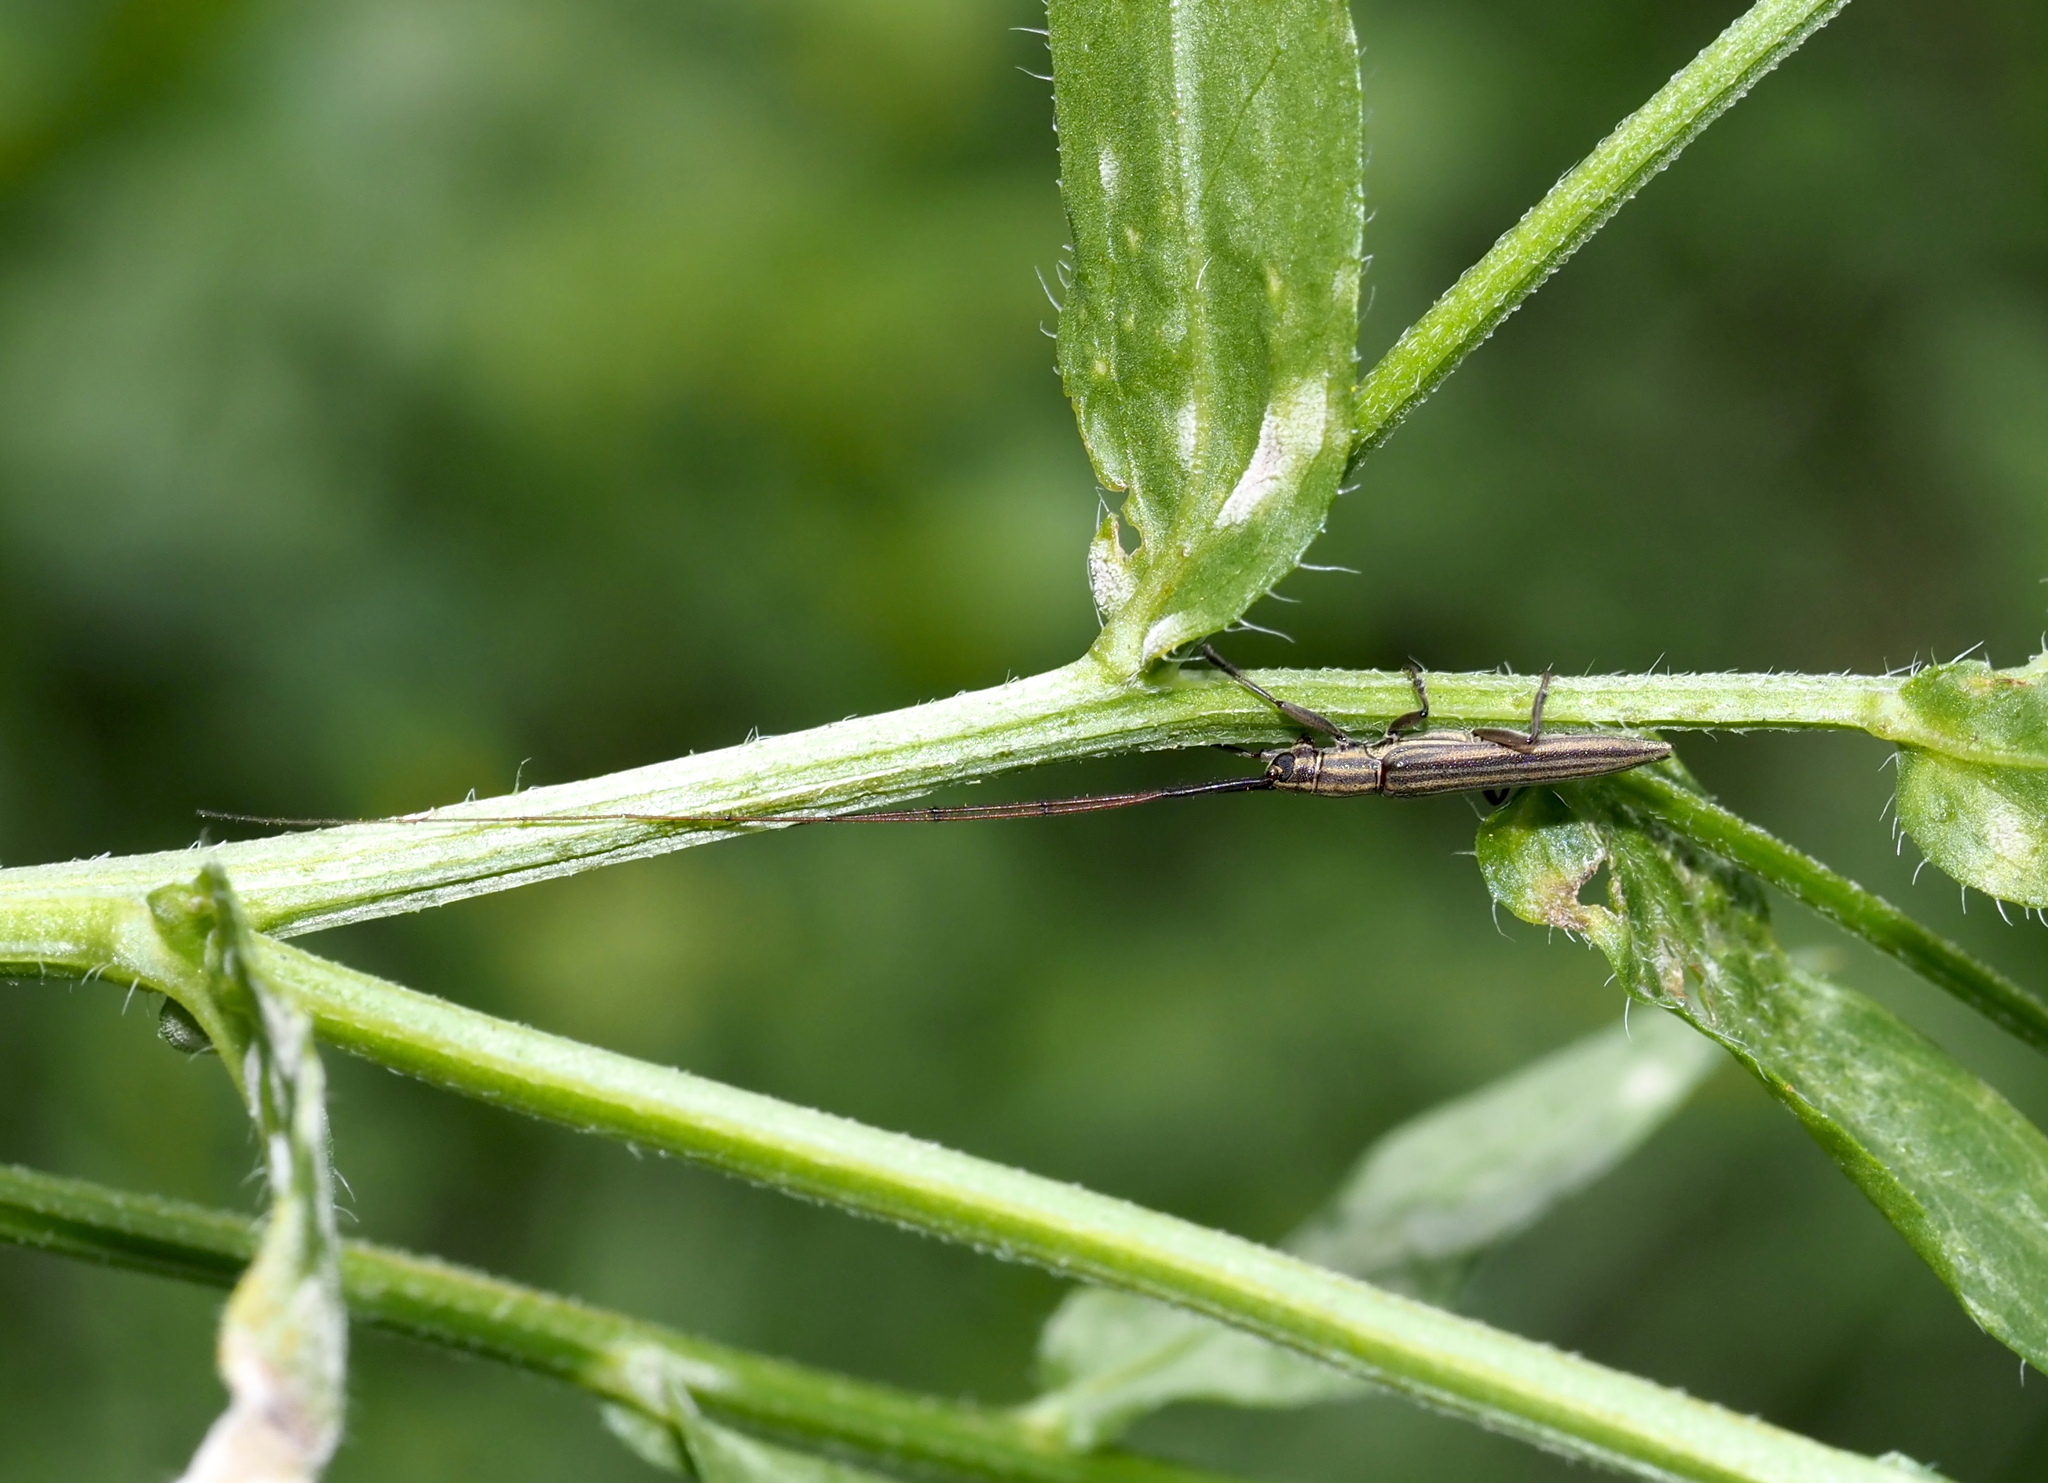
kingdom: Animalia
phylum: Arthropoda
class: Insecta
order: Coleoptera
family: Cerambycidae
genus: Hippopsis
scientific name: Hippopsis
